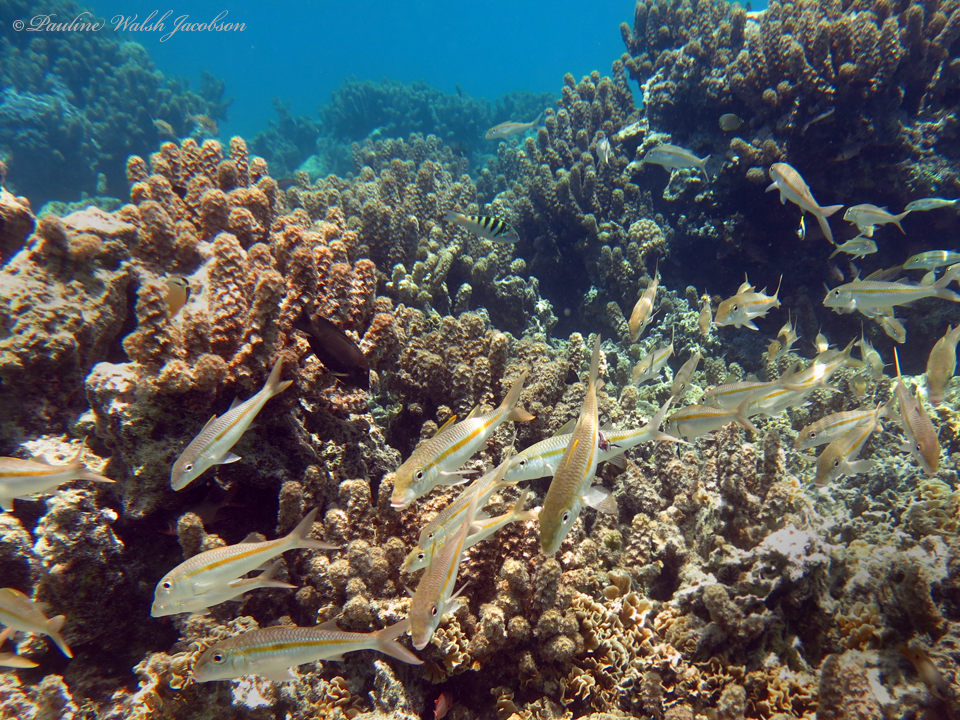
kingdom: Animalia
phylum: Chordata
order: Perciformes
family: Mullidae
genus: Mulloidichthys
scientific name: Mulloidichthys flavolineatus
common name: Yellowstripe goatfish
